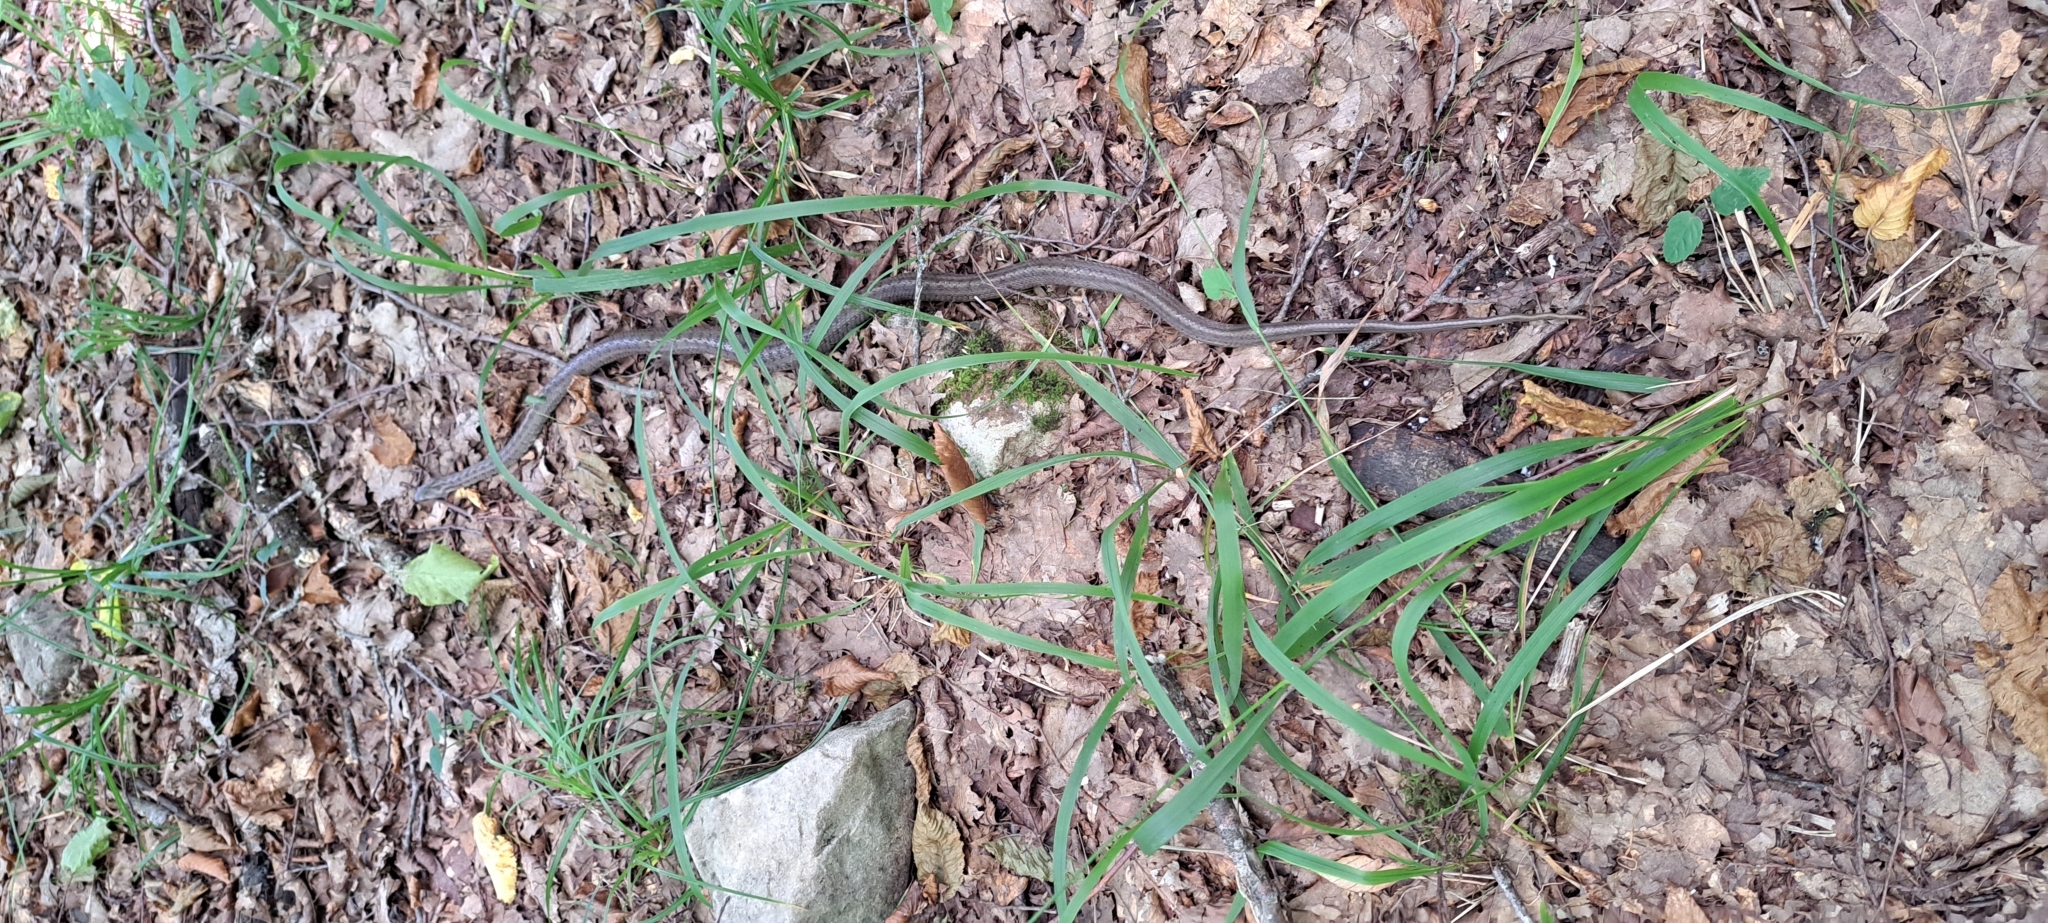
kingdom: Animalia
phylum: Chordata
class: Squamata
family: Colubridae
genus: Zamenis
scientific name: Zamenis hohenackeri
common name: Transcaucasian rat snake
